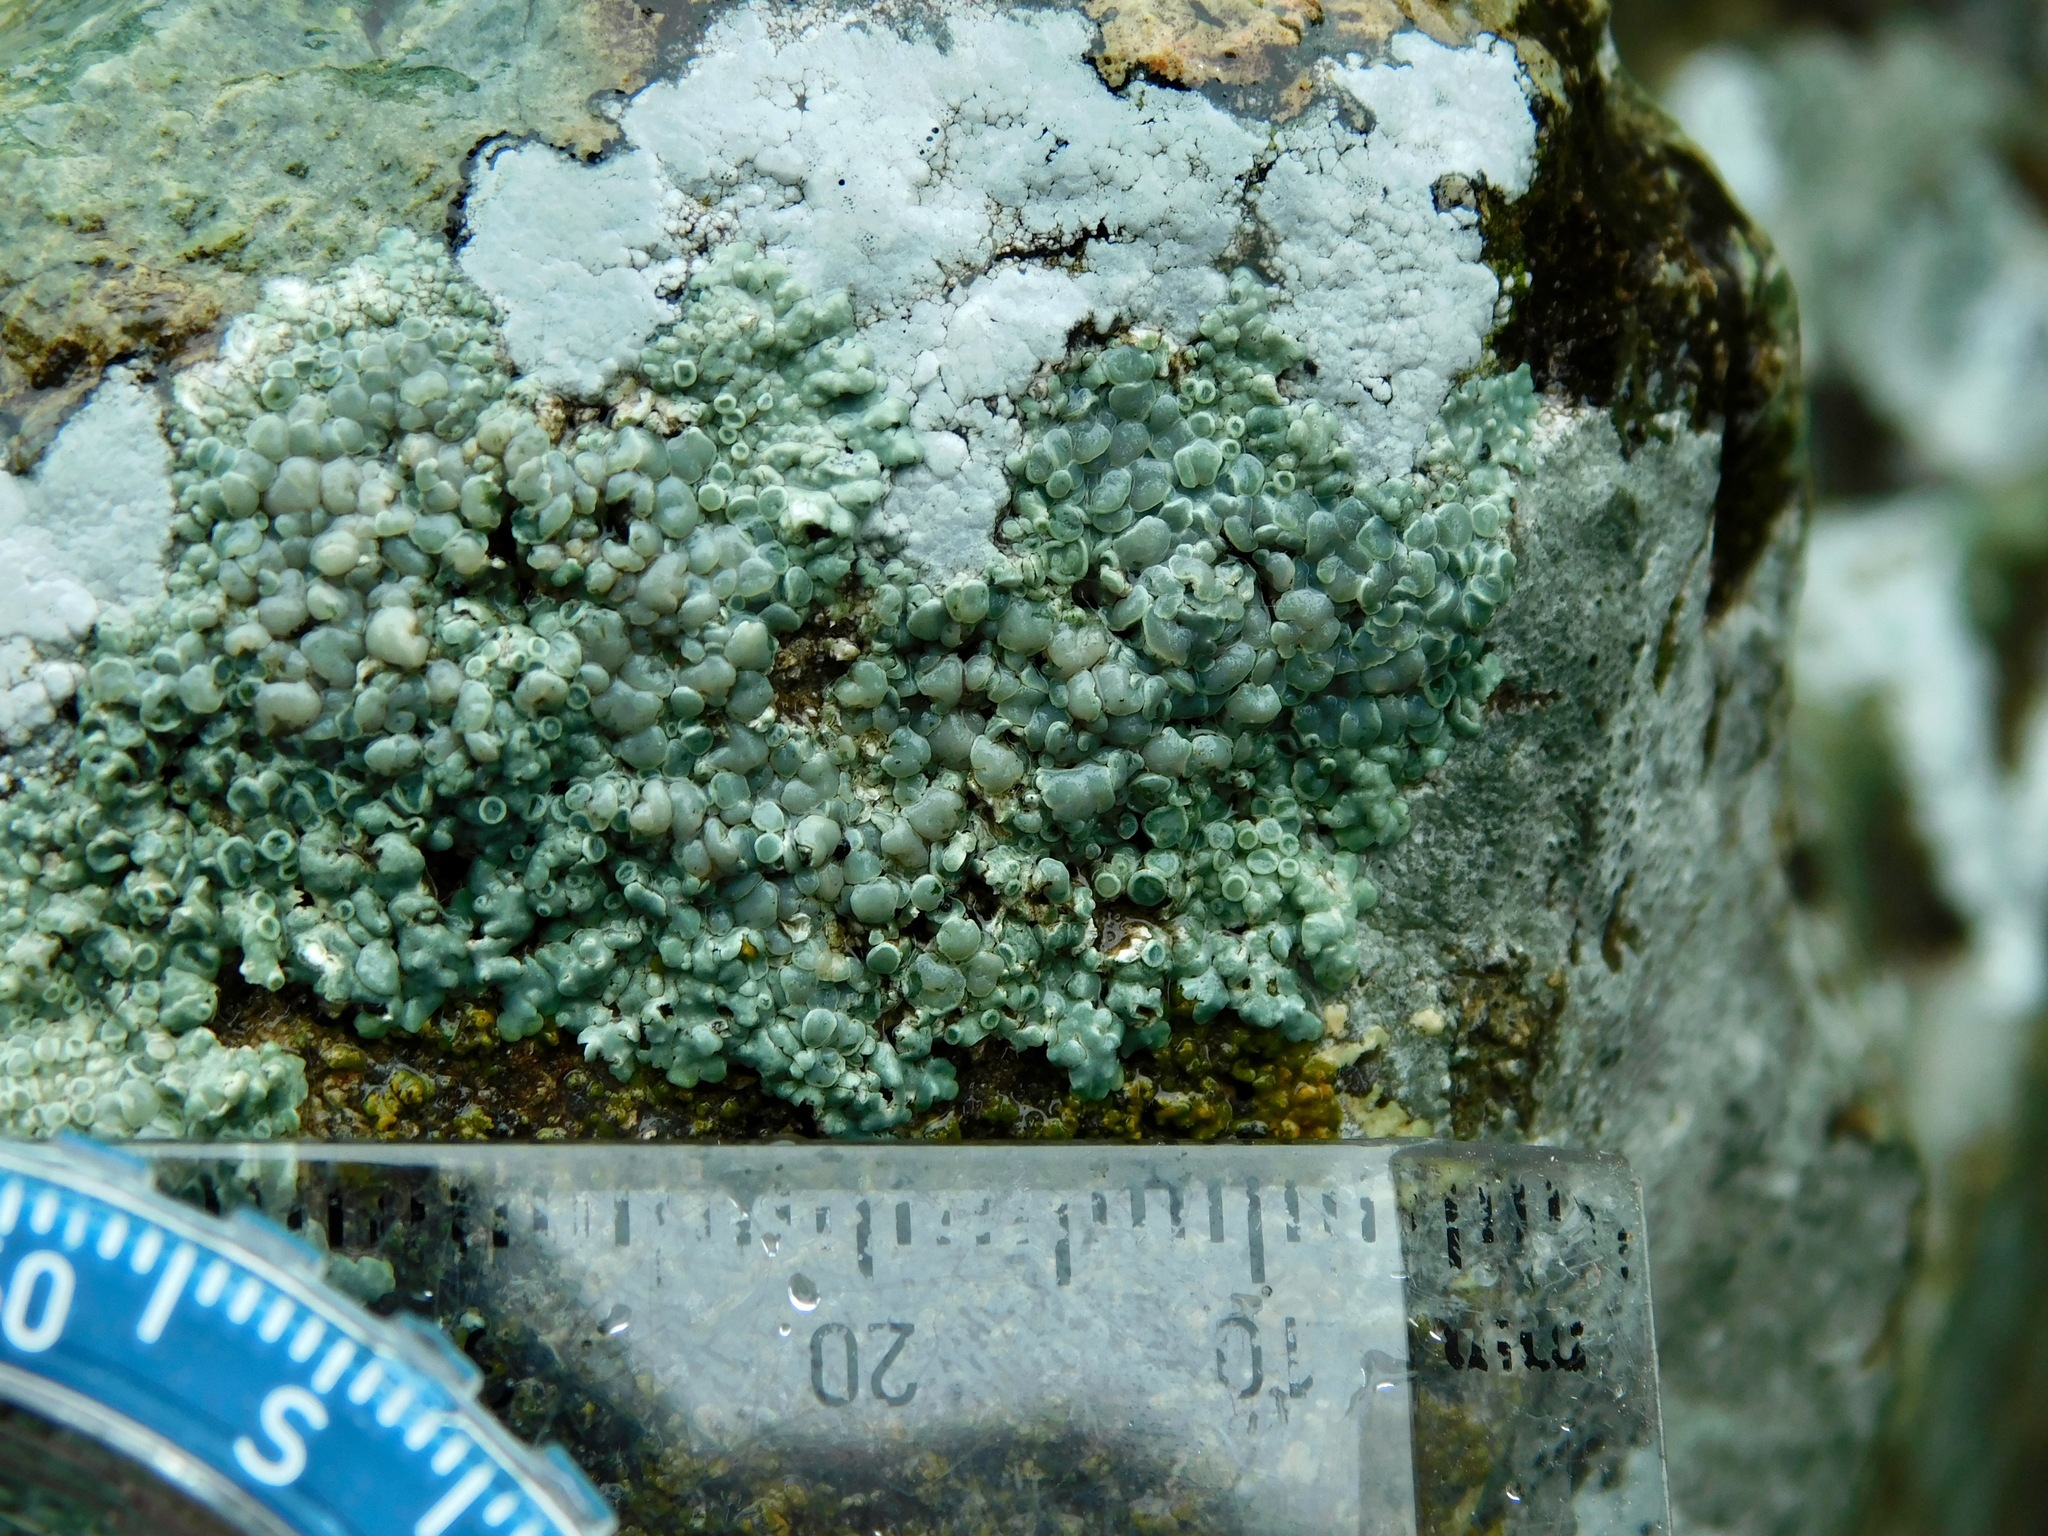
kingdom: Fungi
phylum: Ascomycota
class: Lecanoromycetes
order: Lecanorales
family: Lecanoraceae
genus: Protoparmeliopsis
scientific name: Protoparmeliopsis muralis
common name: Stonewall rim lichen
